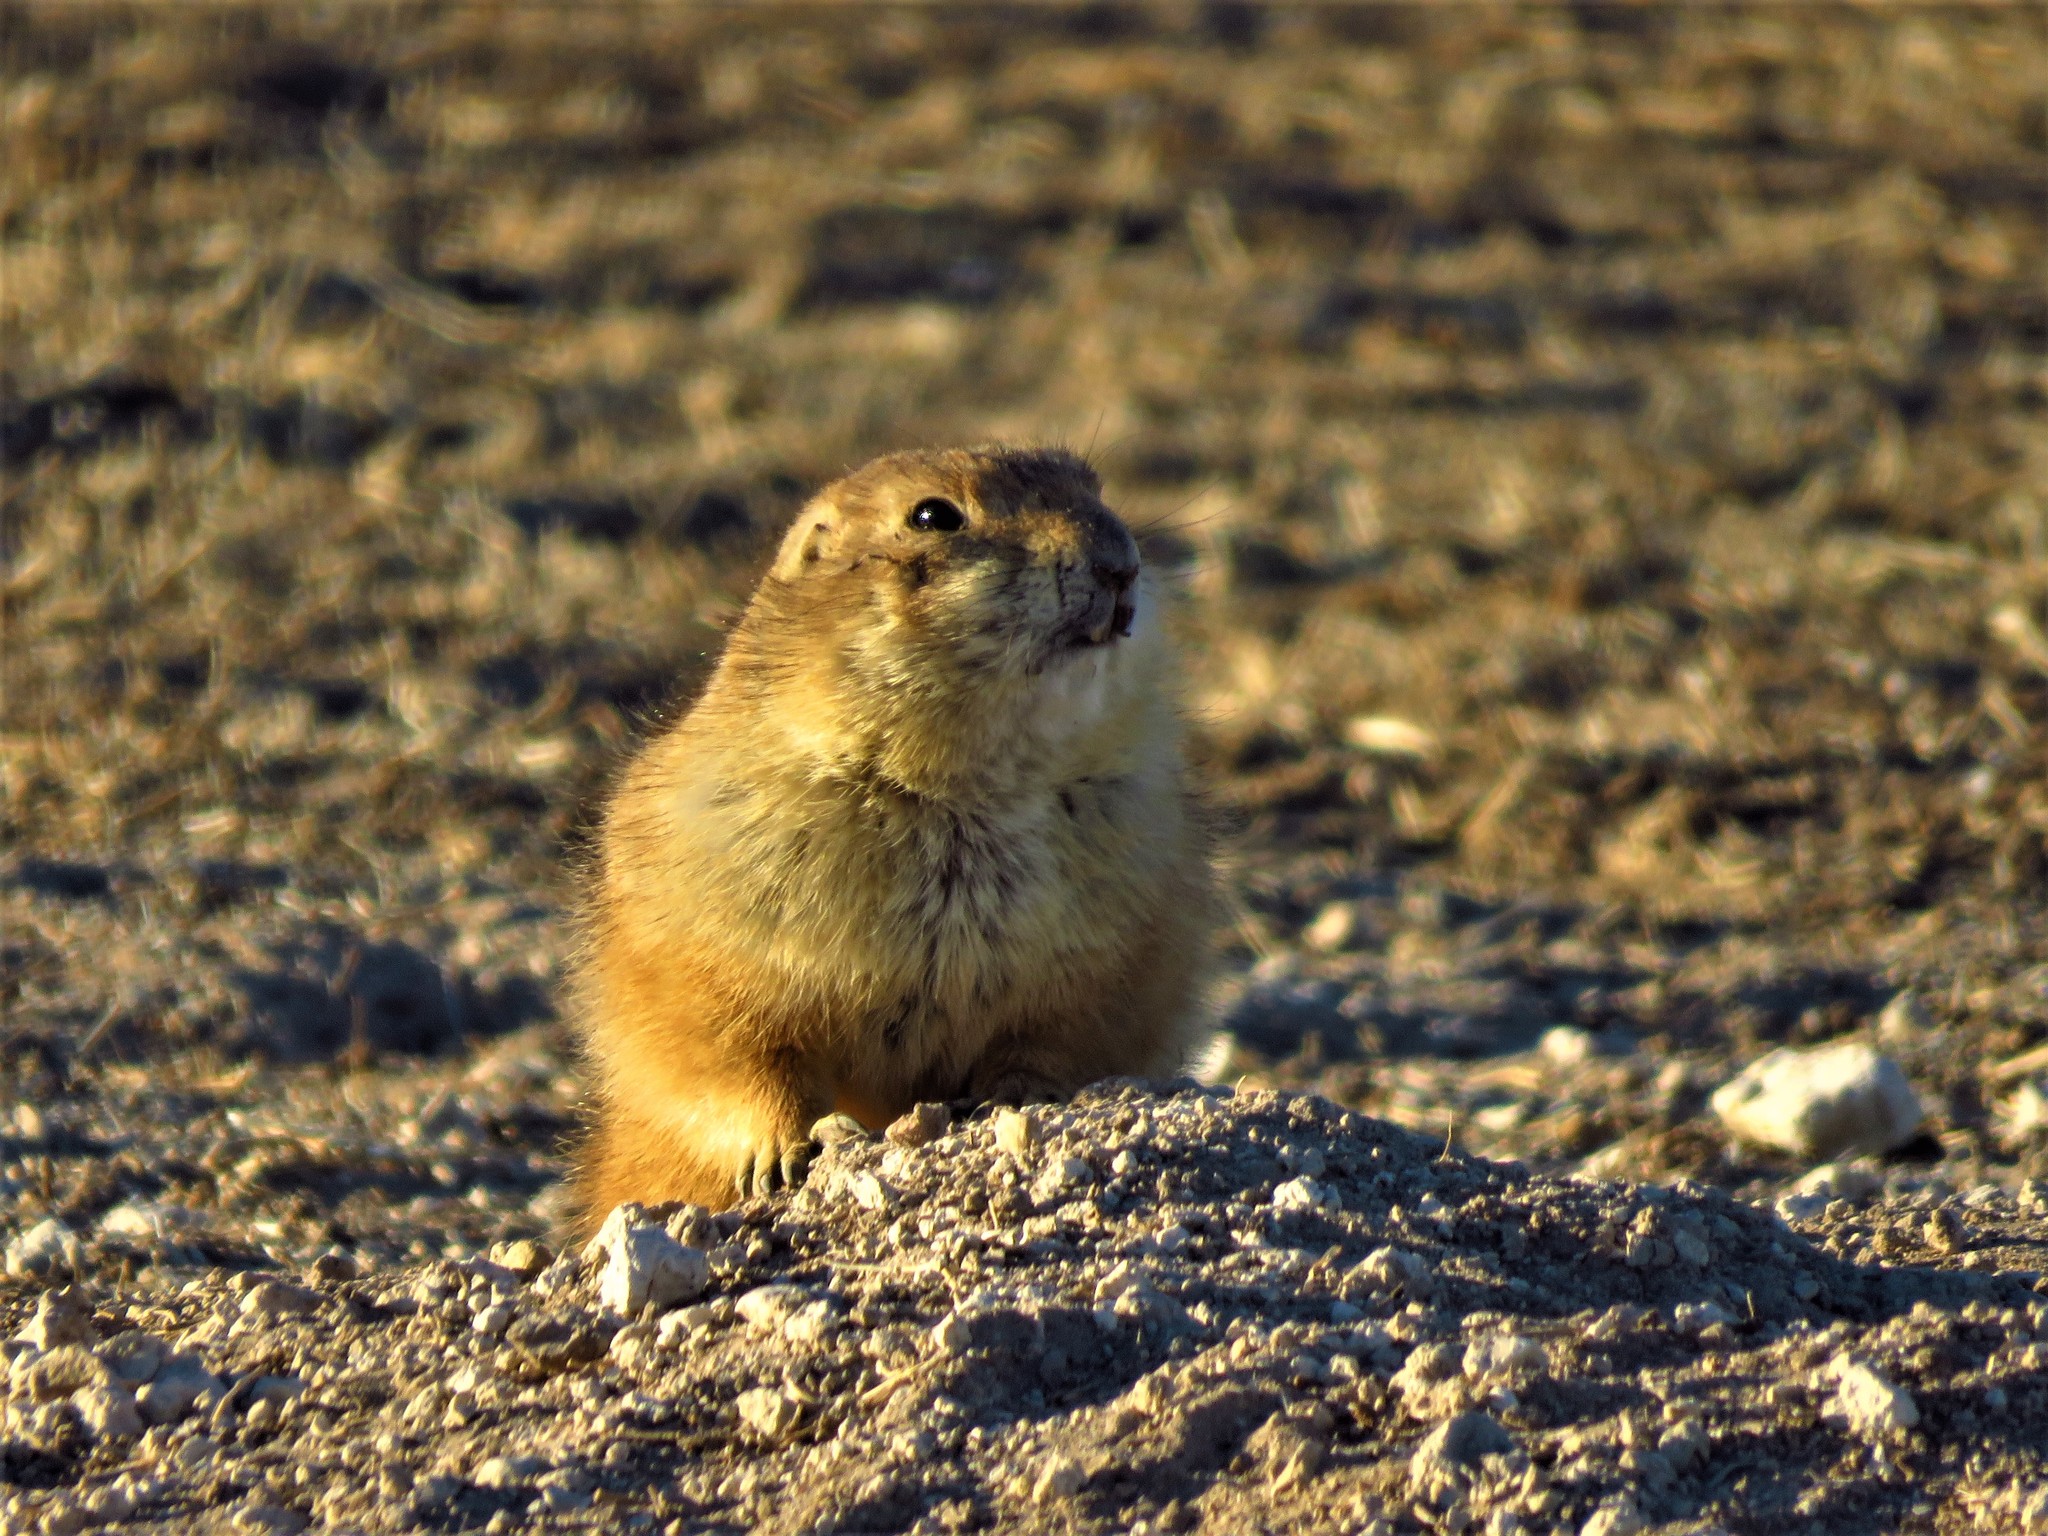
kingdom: Animalia
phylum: Chordata
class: Mammalia
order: Rodentia
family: Sciuridae
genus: Cynomys
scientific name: Cynomys ludovicianus
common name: Black-tailed prairie dog
